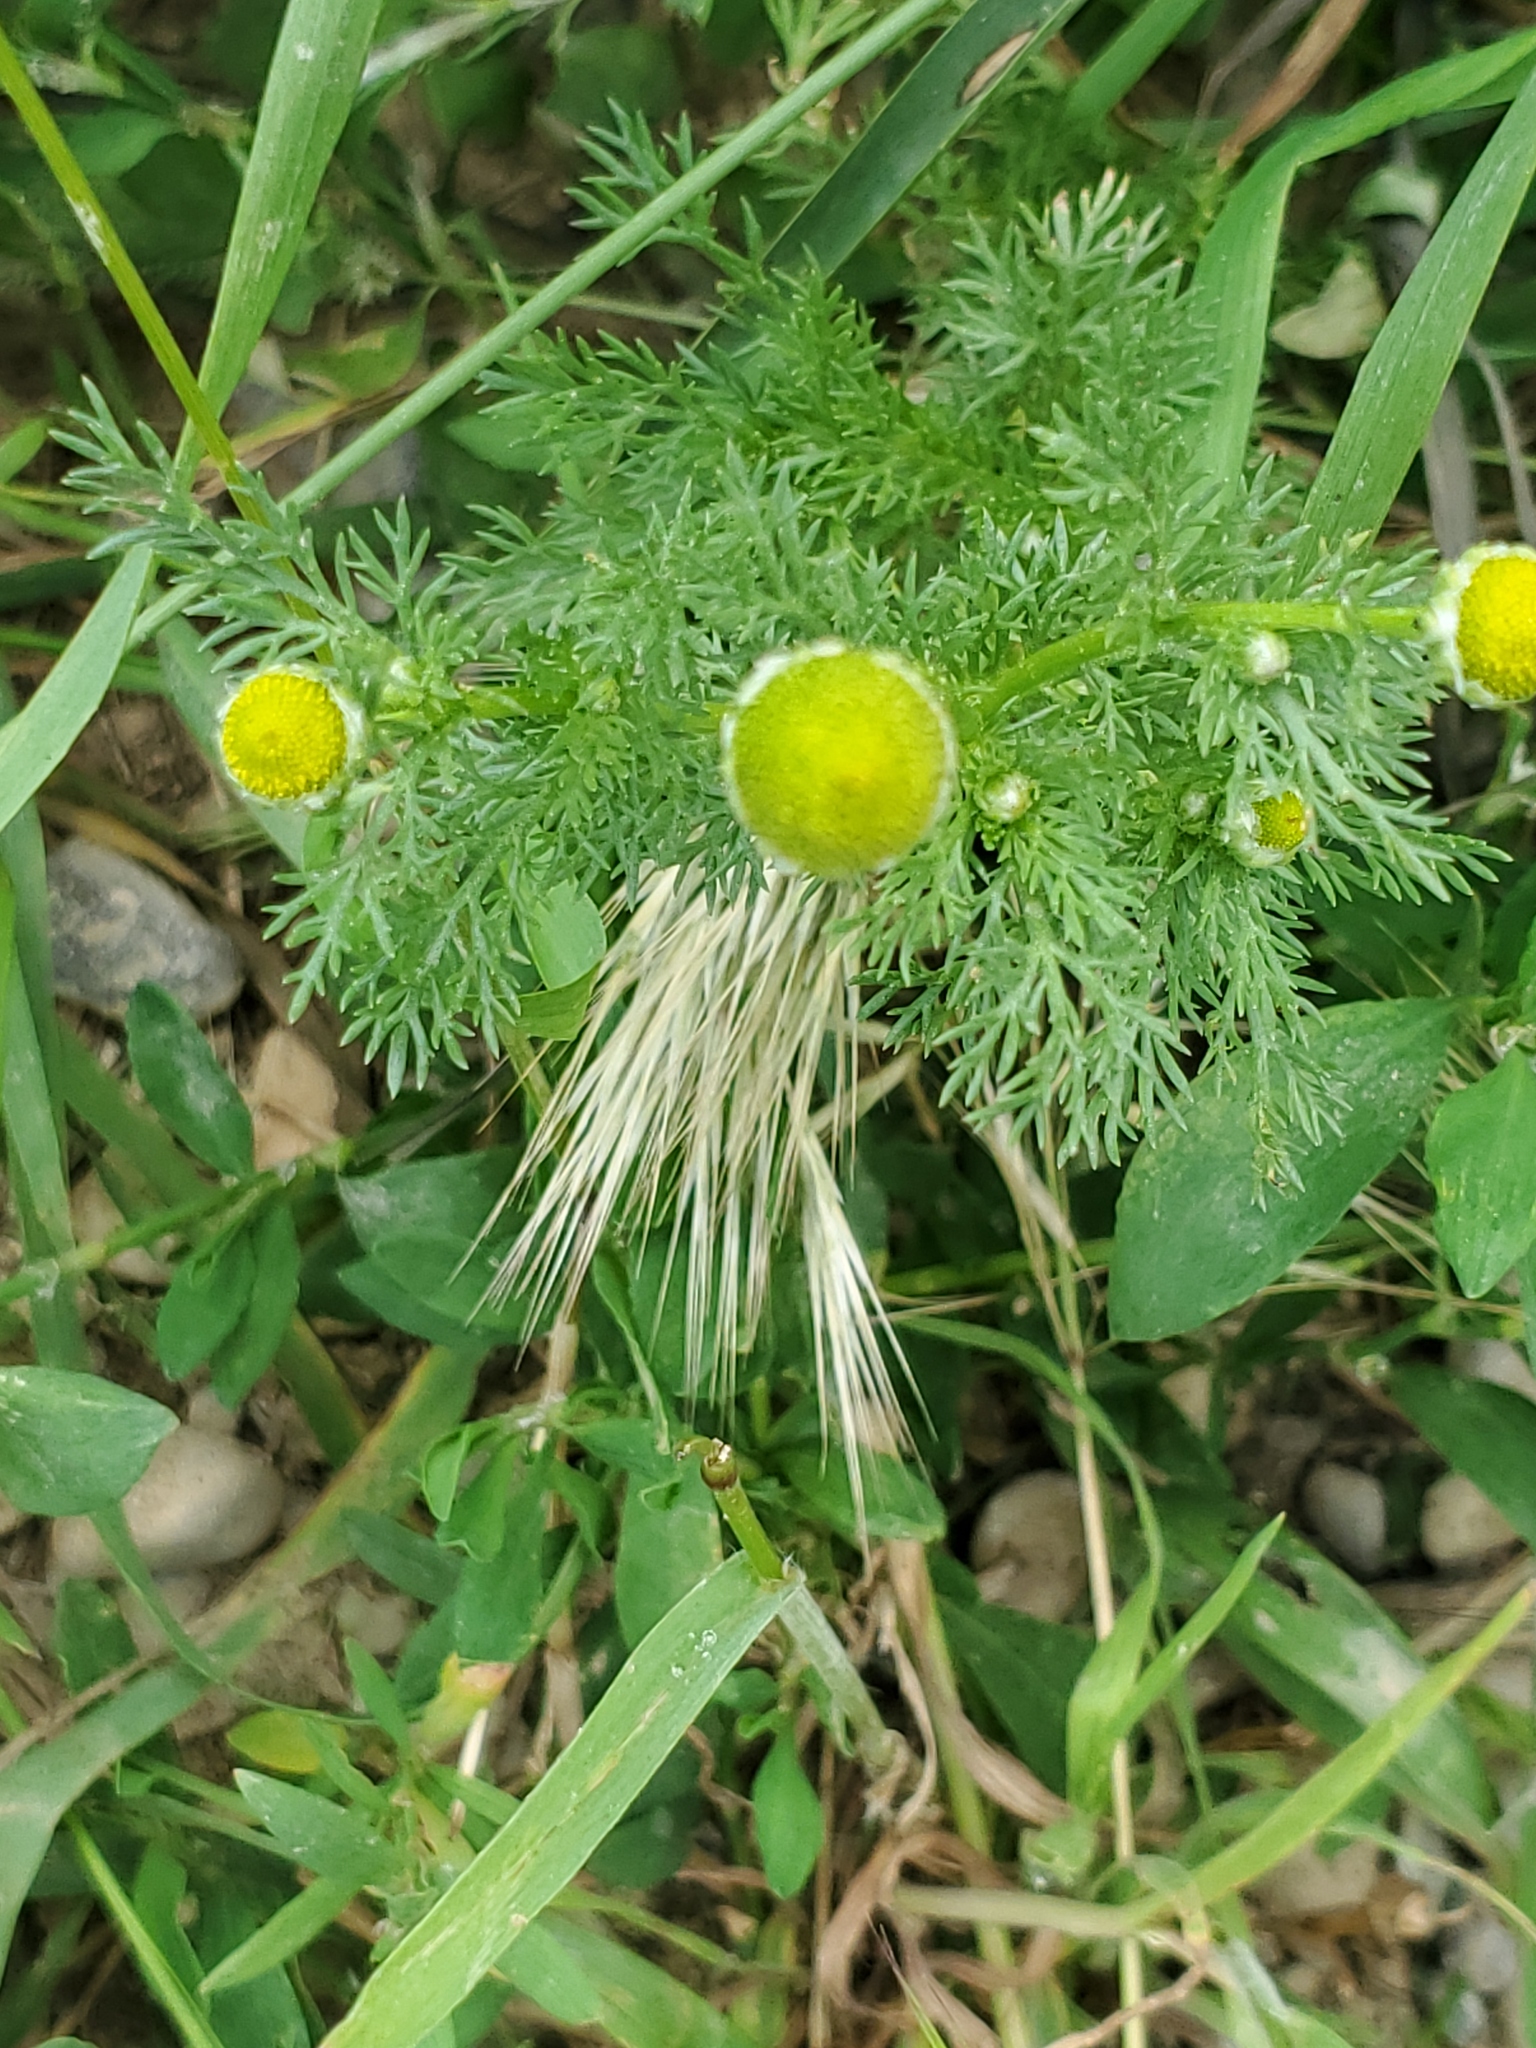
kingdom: Plantae
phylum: Tracheophyta
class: Magnoliopsida
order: Asterales
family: Asteraceae
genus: Matricaria
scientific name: Matricaria discoidea
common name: Disc mayweed
